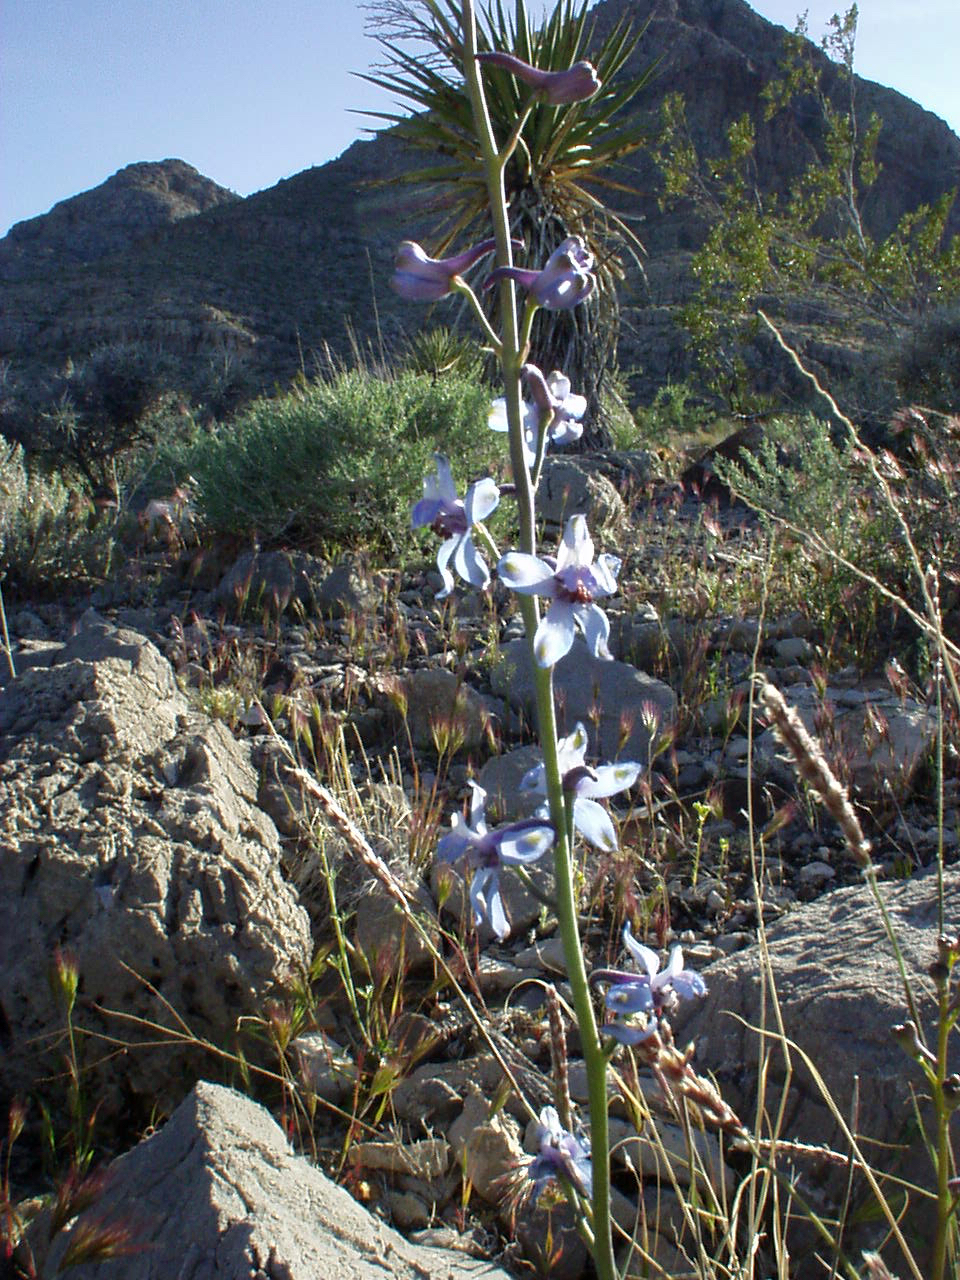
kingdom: Plantae
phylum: Tracheophyta
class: Magnoliopsida
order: Ranunculales
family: Ranunculaceae
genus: Delphinium
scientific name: Delphinium parishii
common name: Apache larkspur
